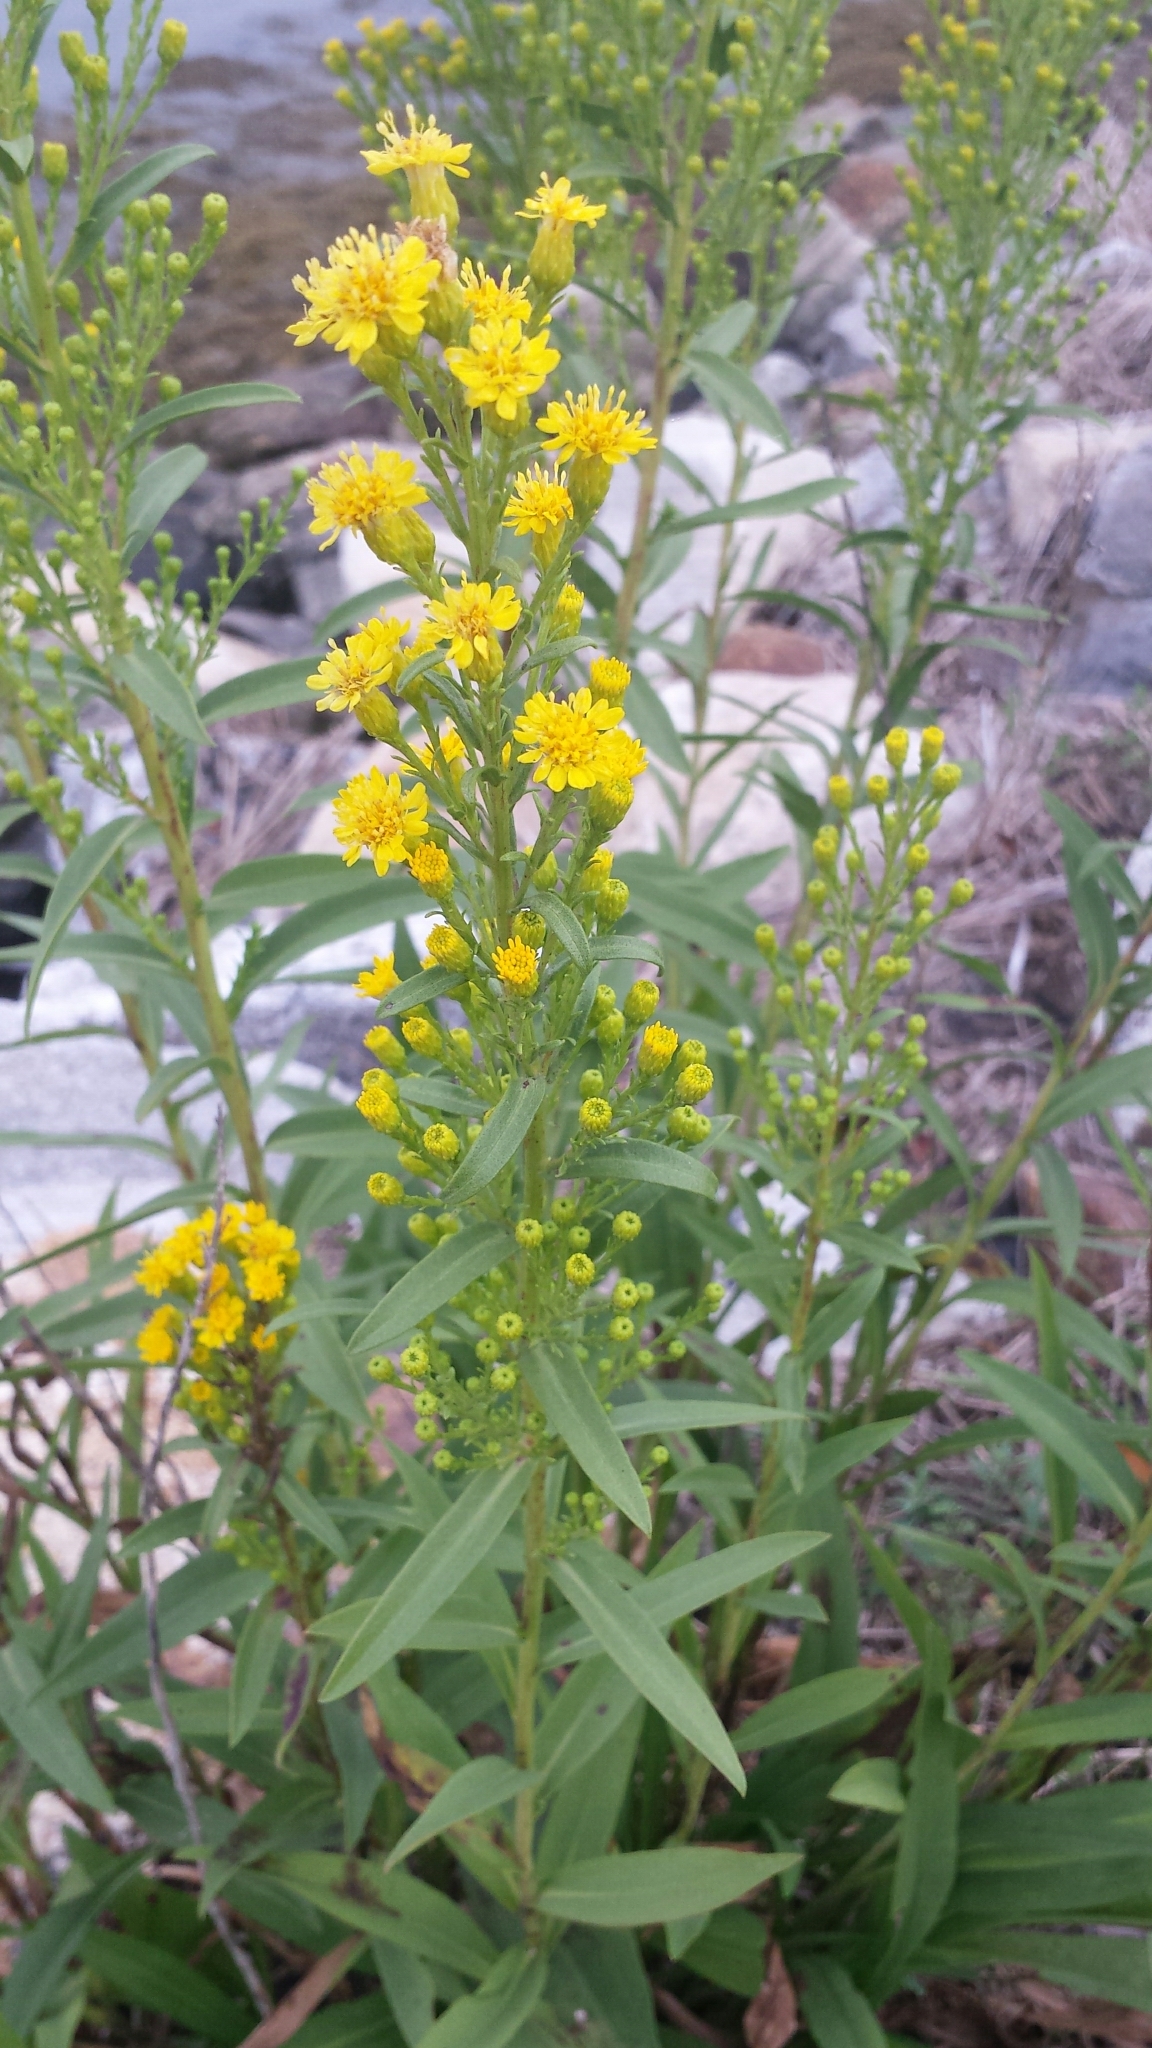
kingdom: Plantae
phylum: Tracheophyta
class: Magnoliopsida
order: Asterales
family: Asteraceae
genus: Solidago
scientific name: Solidago sempervirens
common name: Salt-marsh goldenrod
